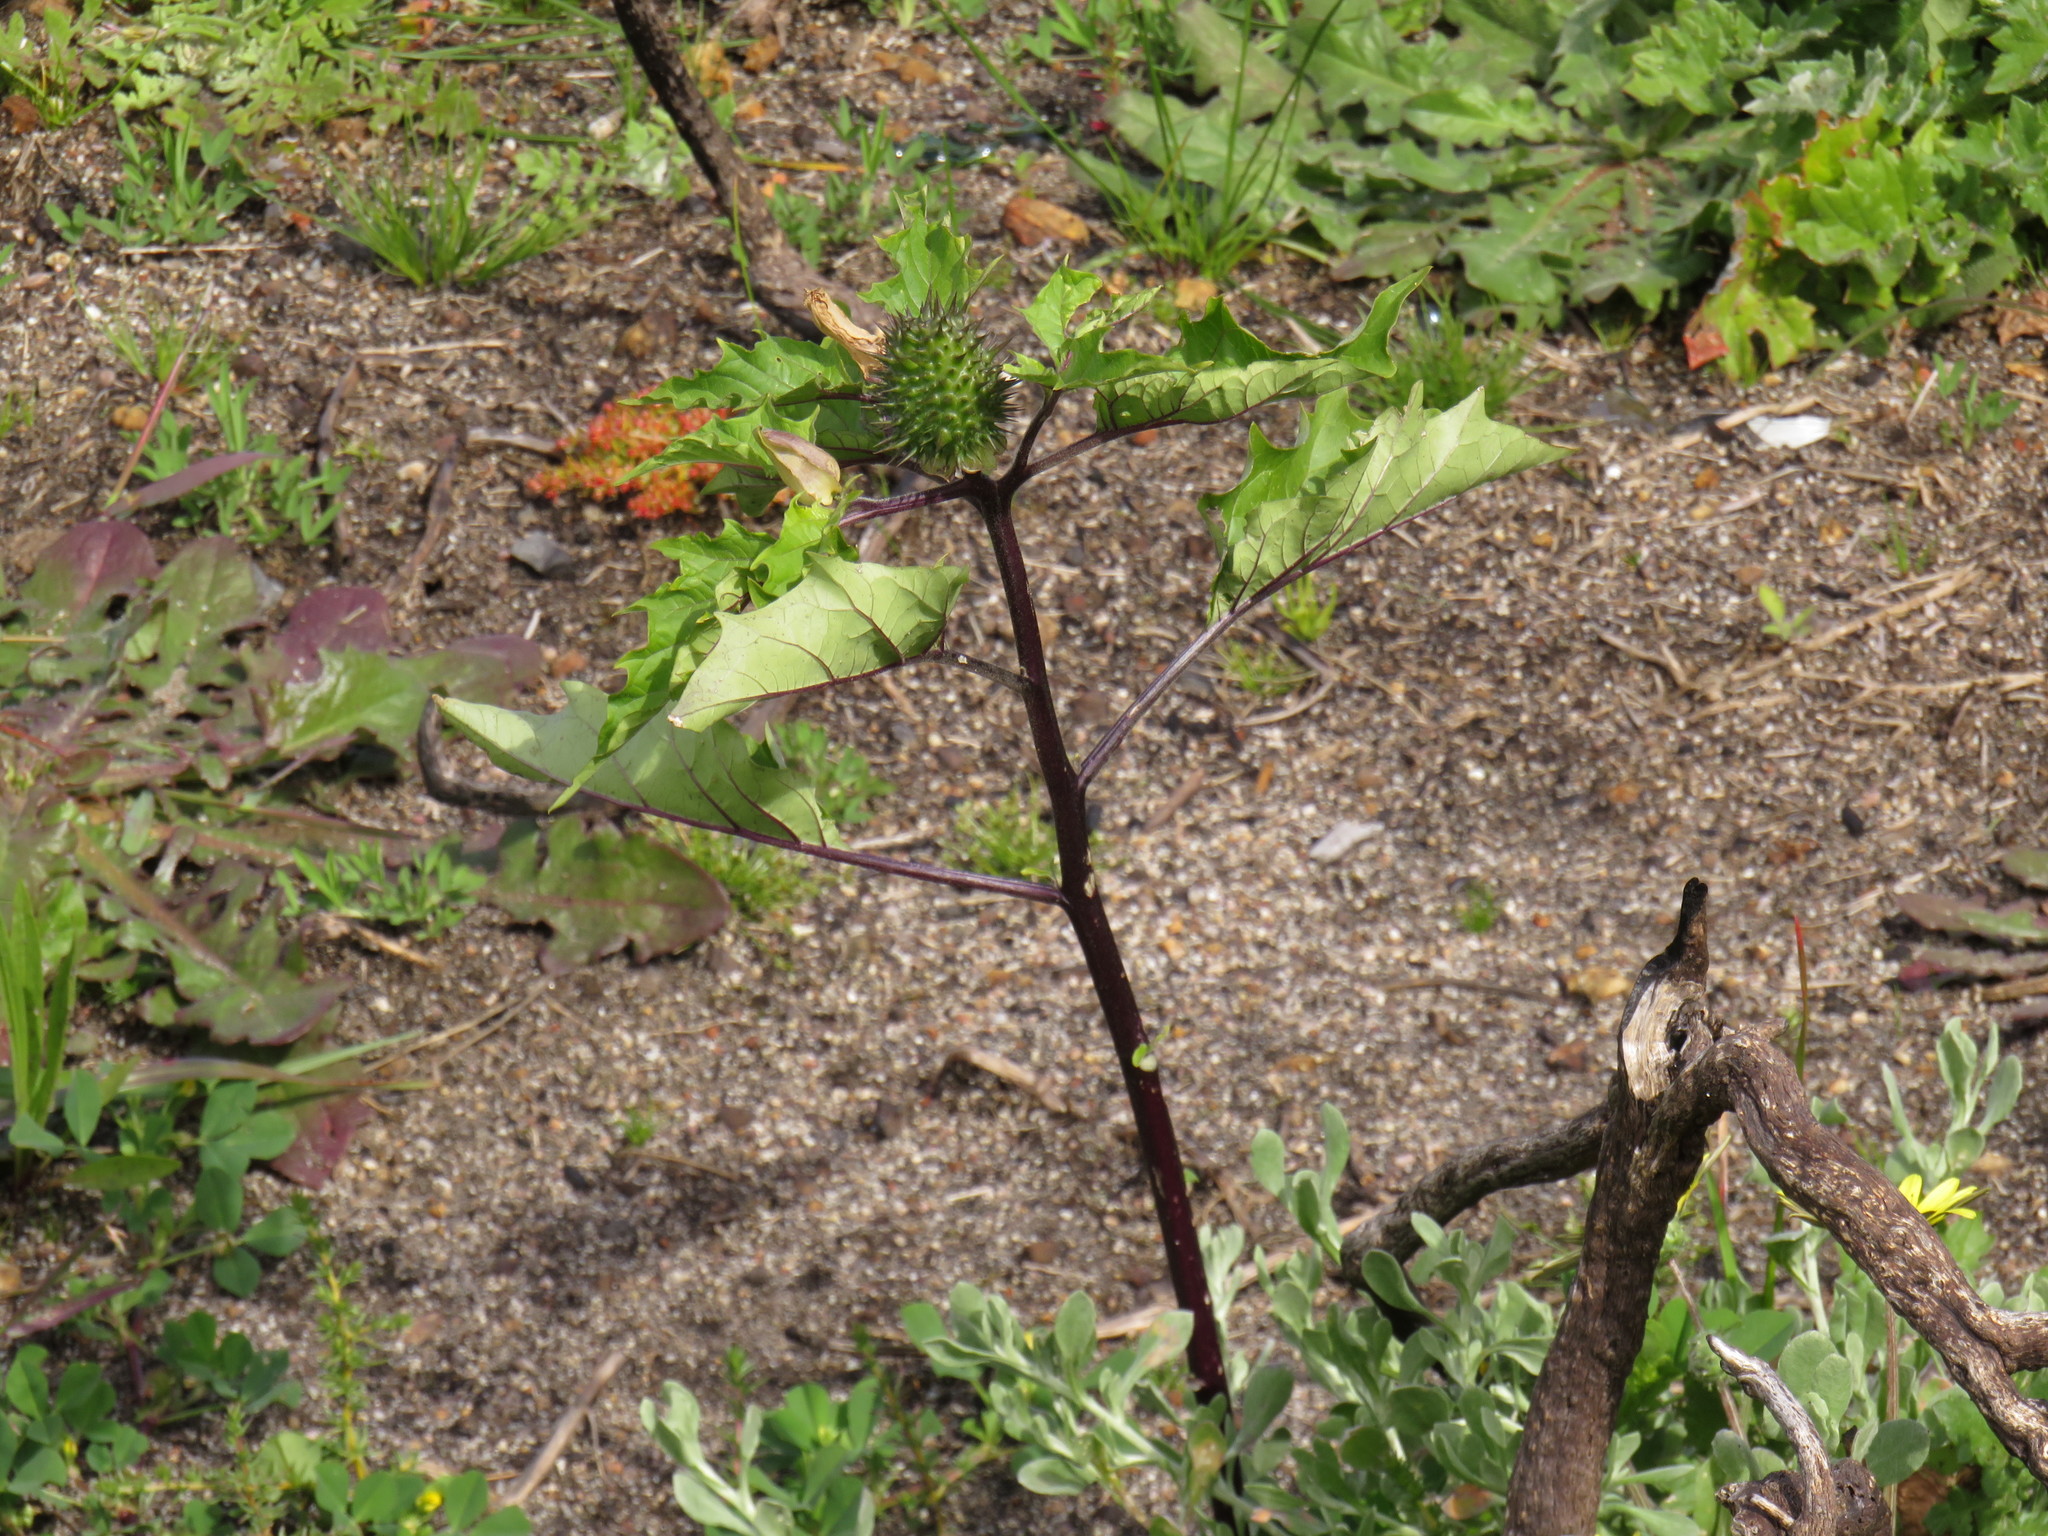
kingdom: Plantae
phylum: Tracheophyta
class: Magnoliopsida
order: Solanales
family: Solanaceae
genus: Datura
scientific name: Datura stramonium
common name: Thorn-apple
